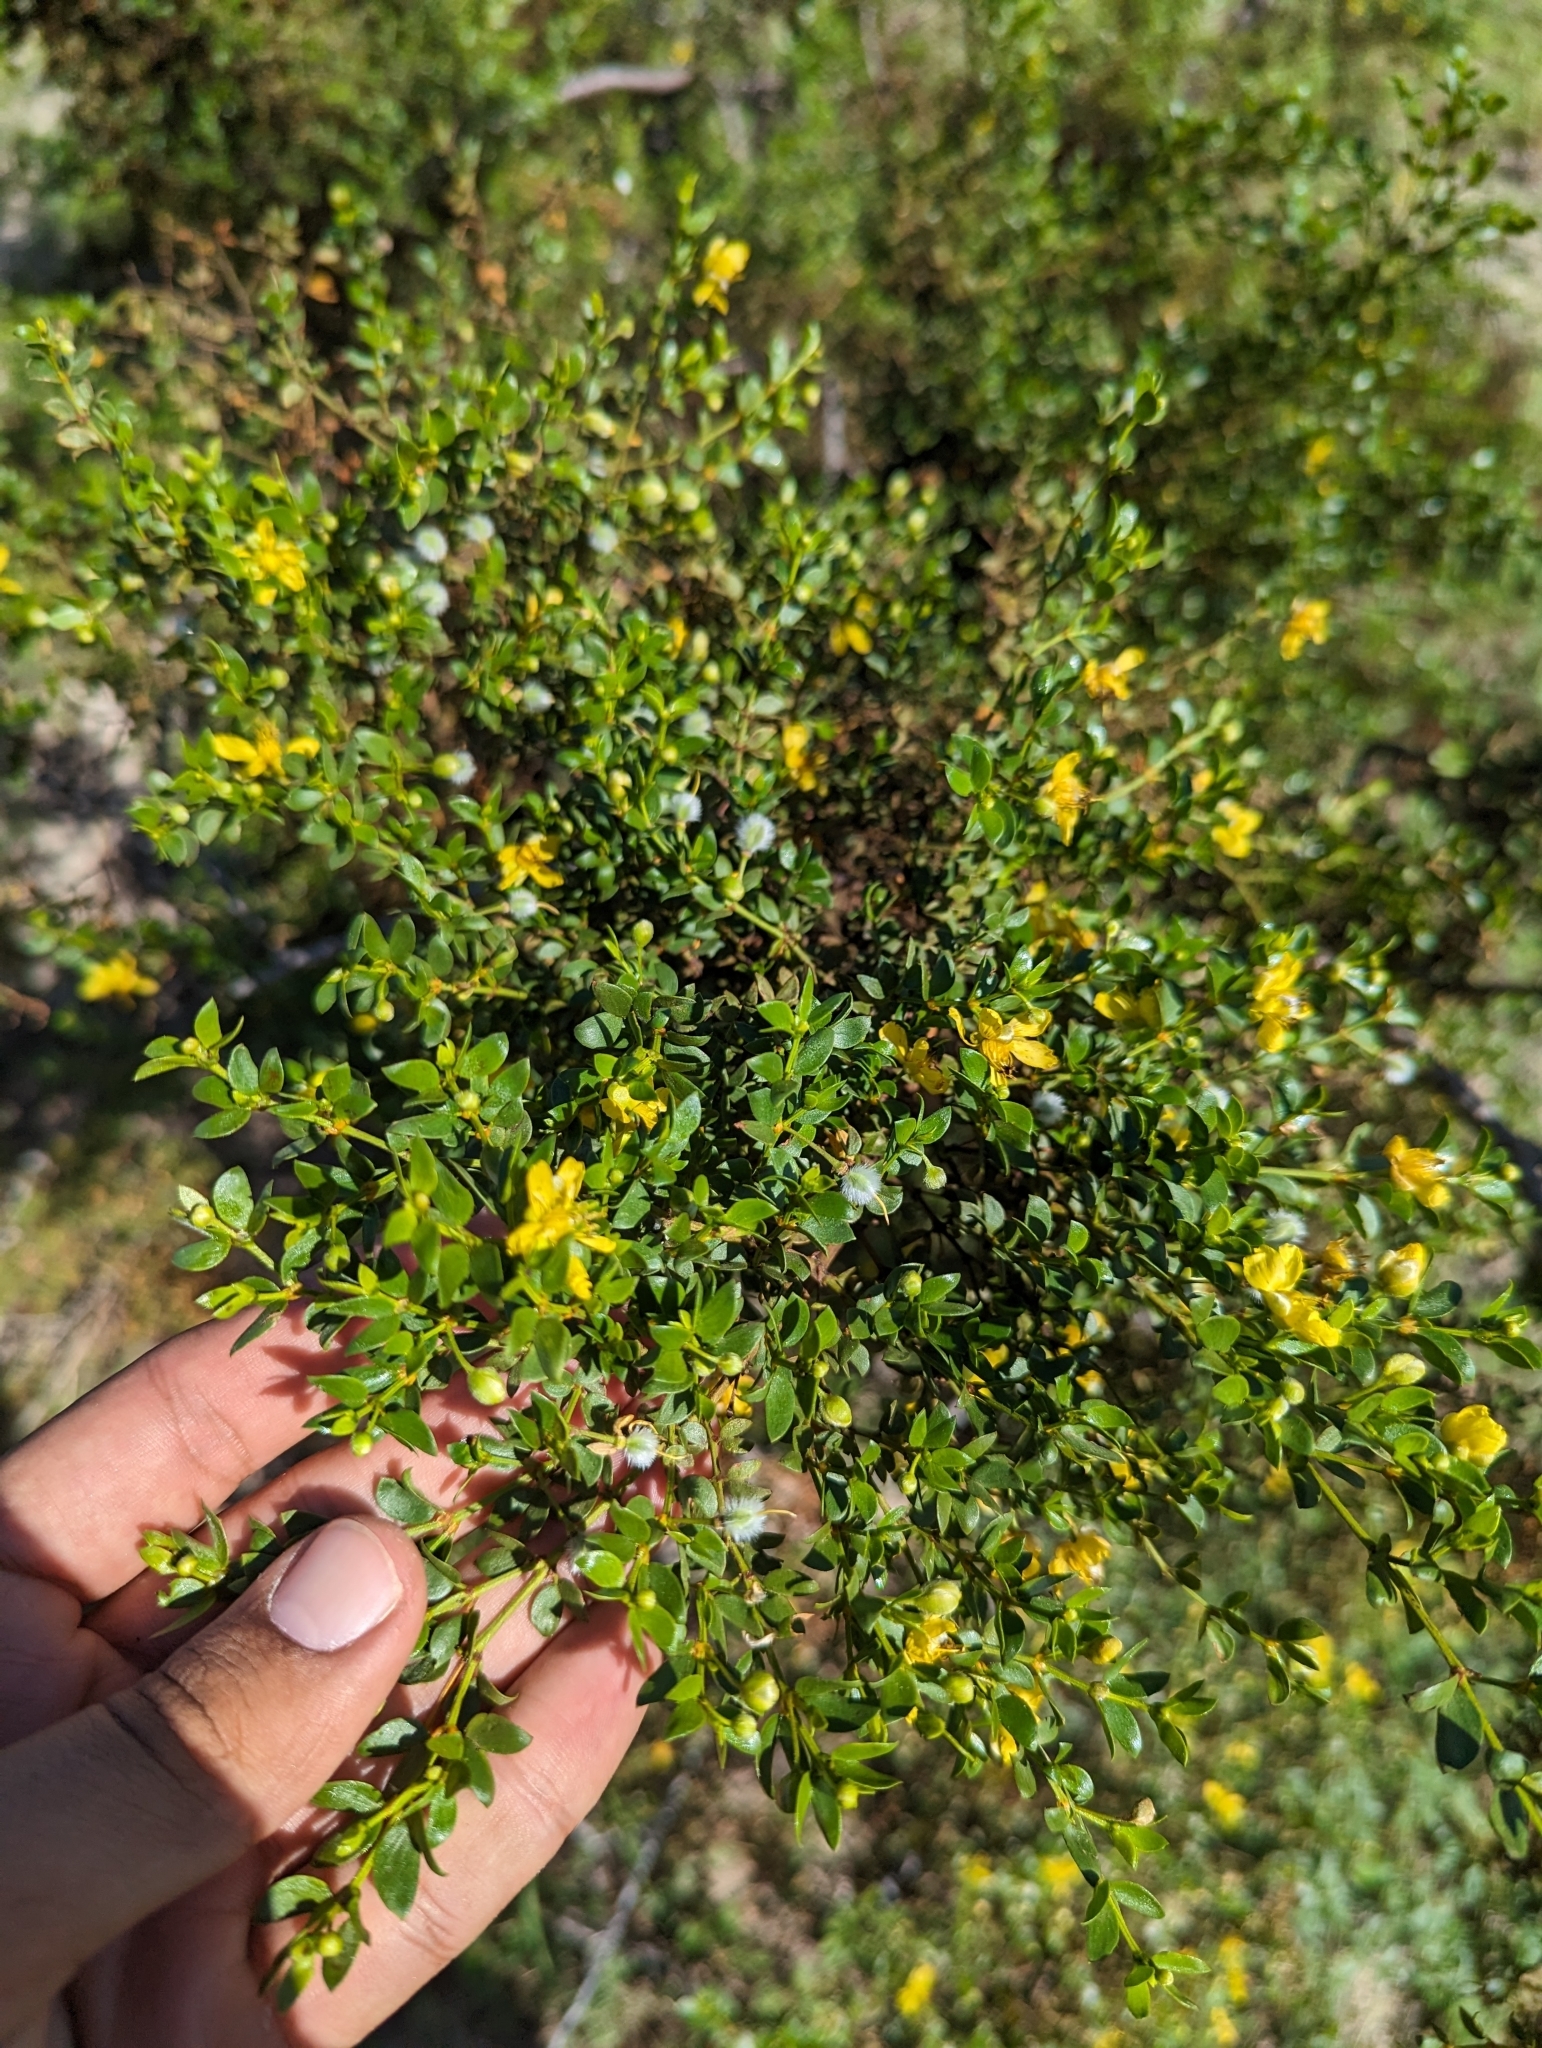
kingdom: Plantae
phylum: Tracheophyta
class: Magnoliopsida
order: Zygophyllales
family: Zygophyllaceae
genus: Larrea
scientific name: Larrea tridentata
